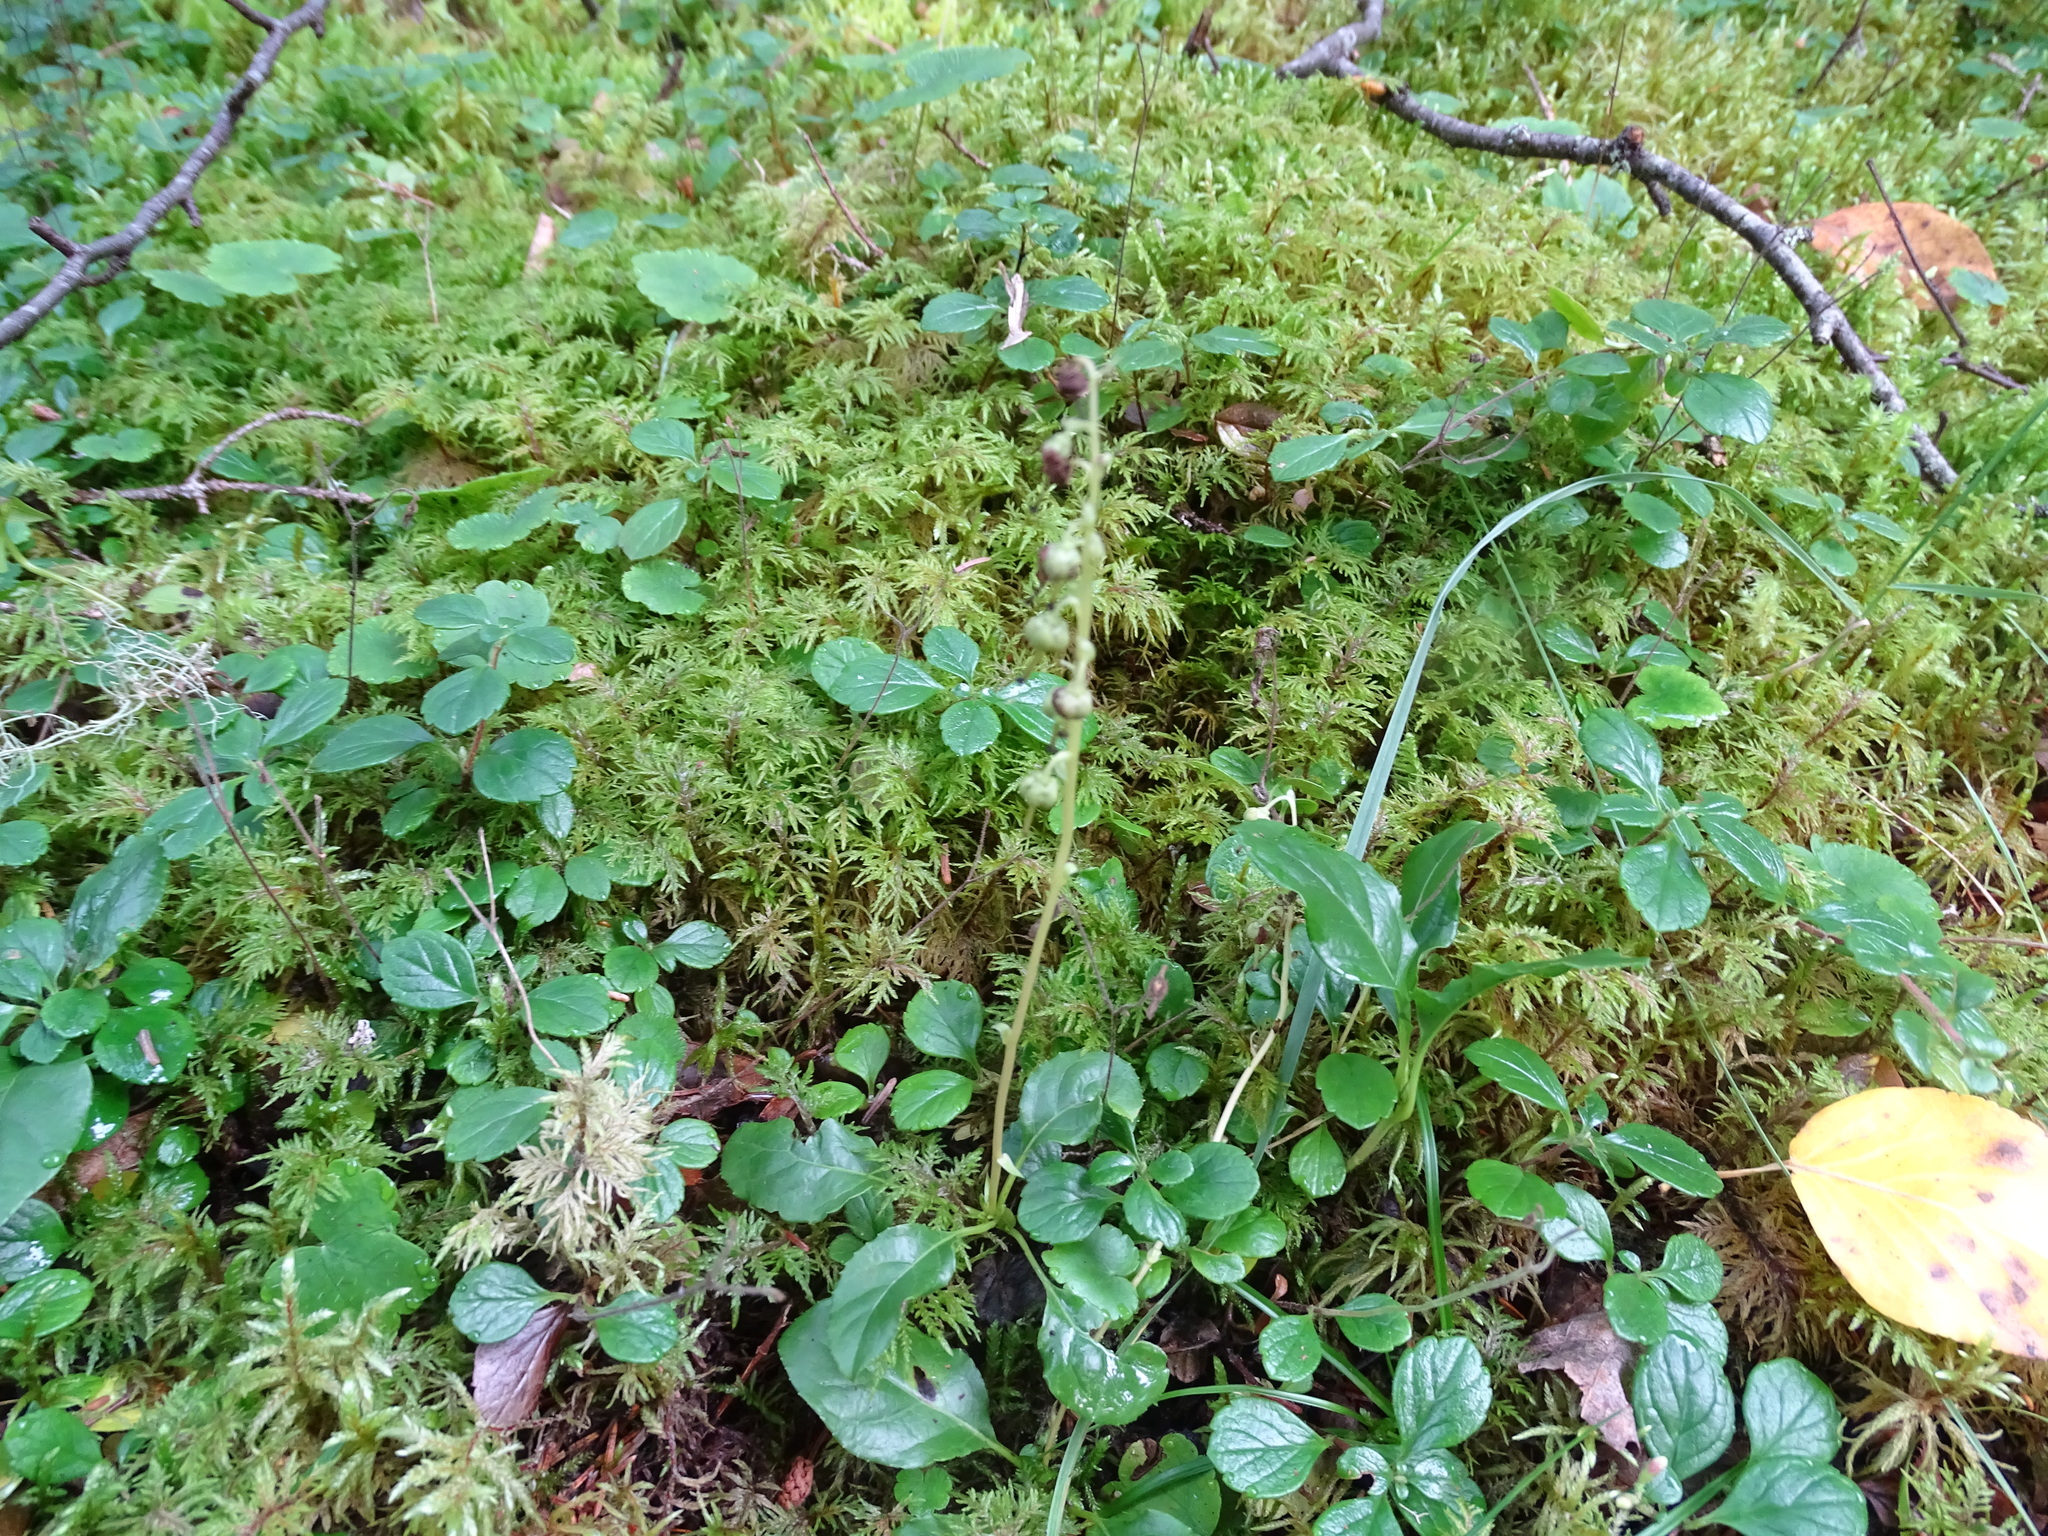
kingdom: Plantae
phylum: Tracheophyta
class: Magnoliopsida
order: Ericales
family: Ericaceae
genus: Orthilia
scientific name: Orthilia secunda
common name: One-sided orthilia
